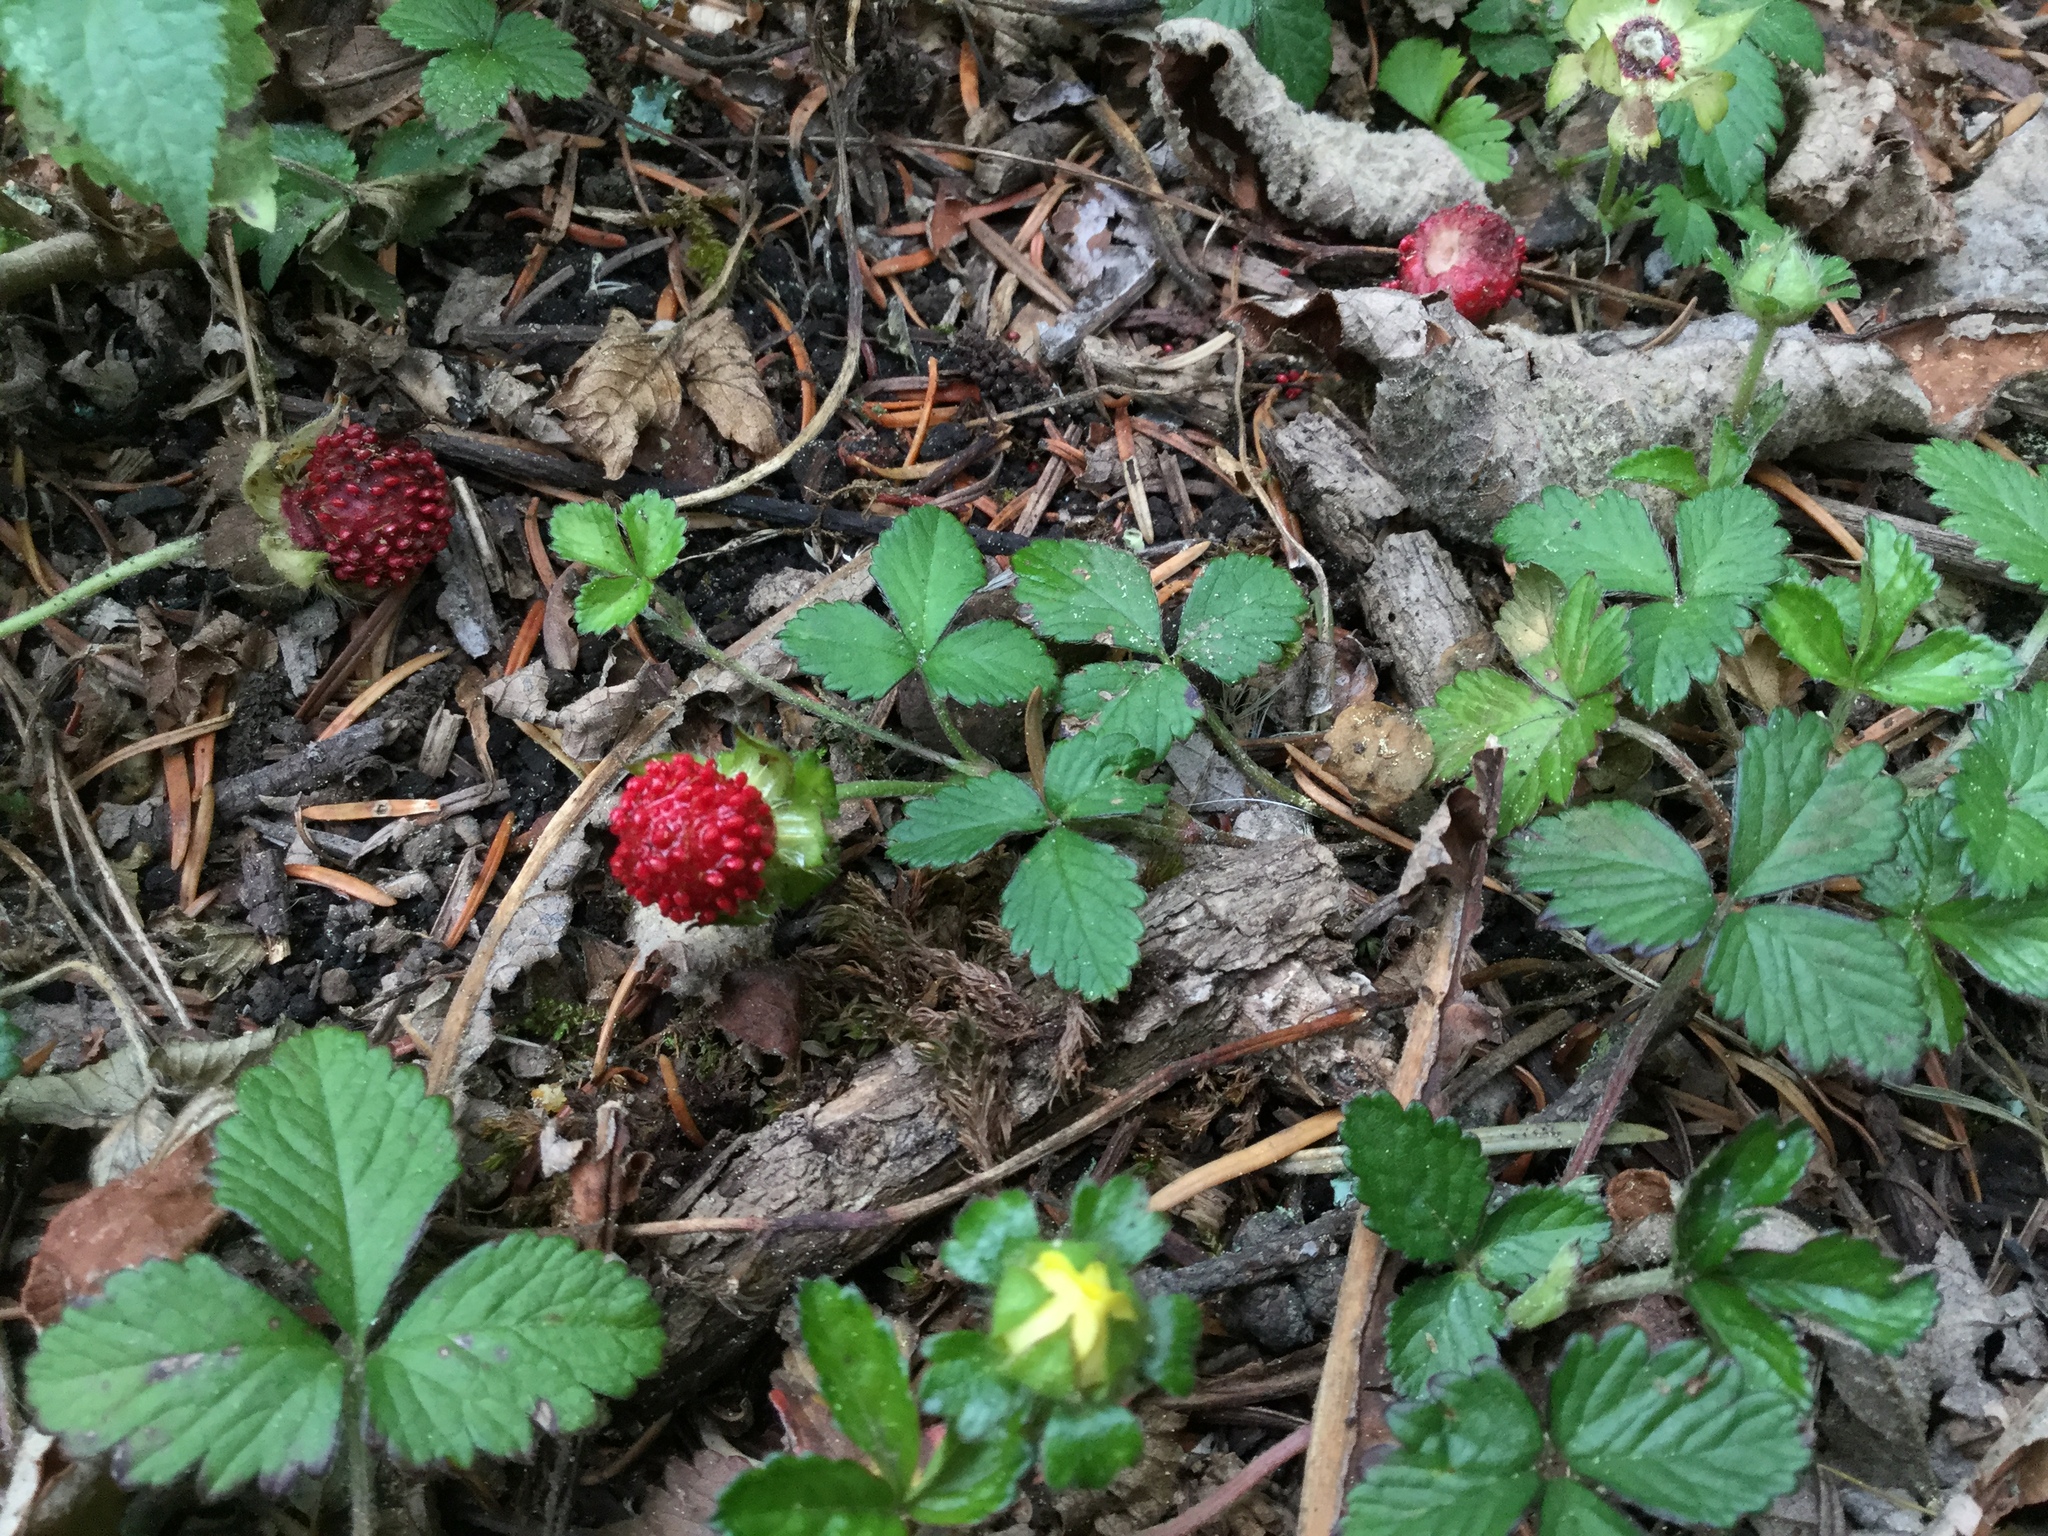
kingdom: Plantae
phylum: Tracheophyta
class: Magnoliopsida
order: Rosales
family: Rosaceae
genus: Potentilla
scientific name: Potentilla indica
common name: Yellow-flowered strawberry
